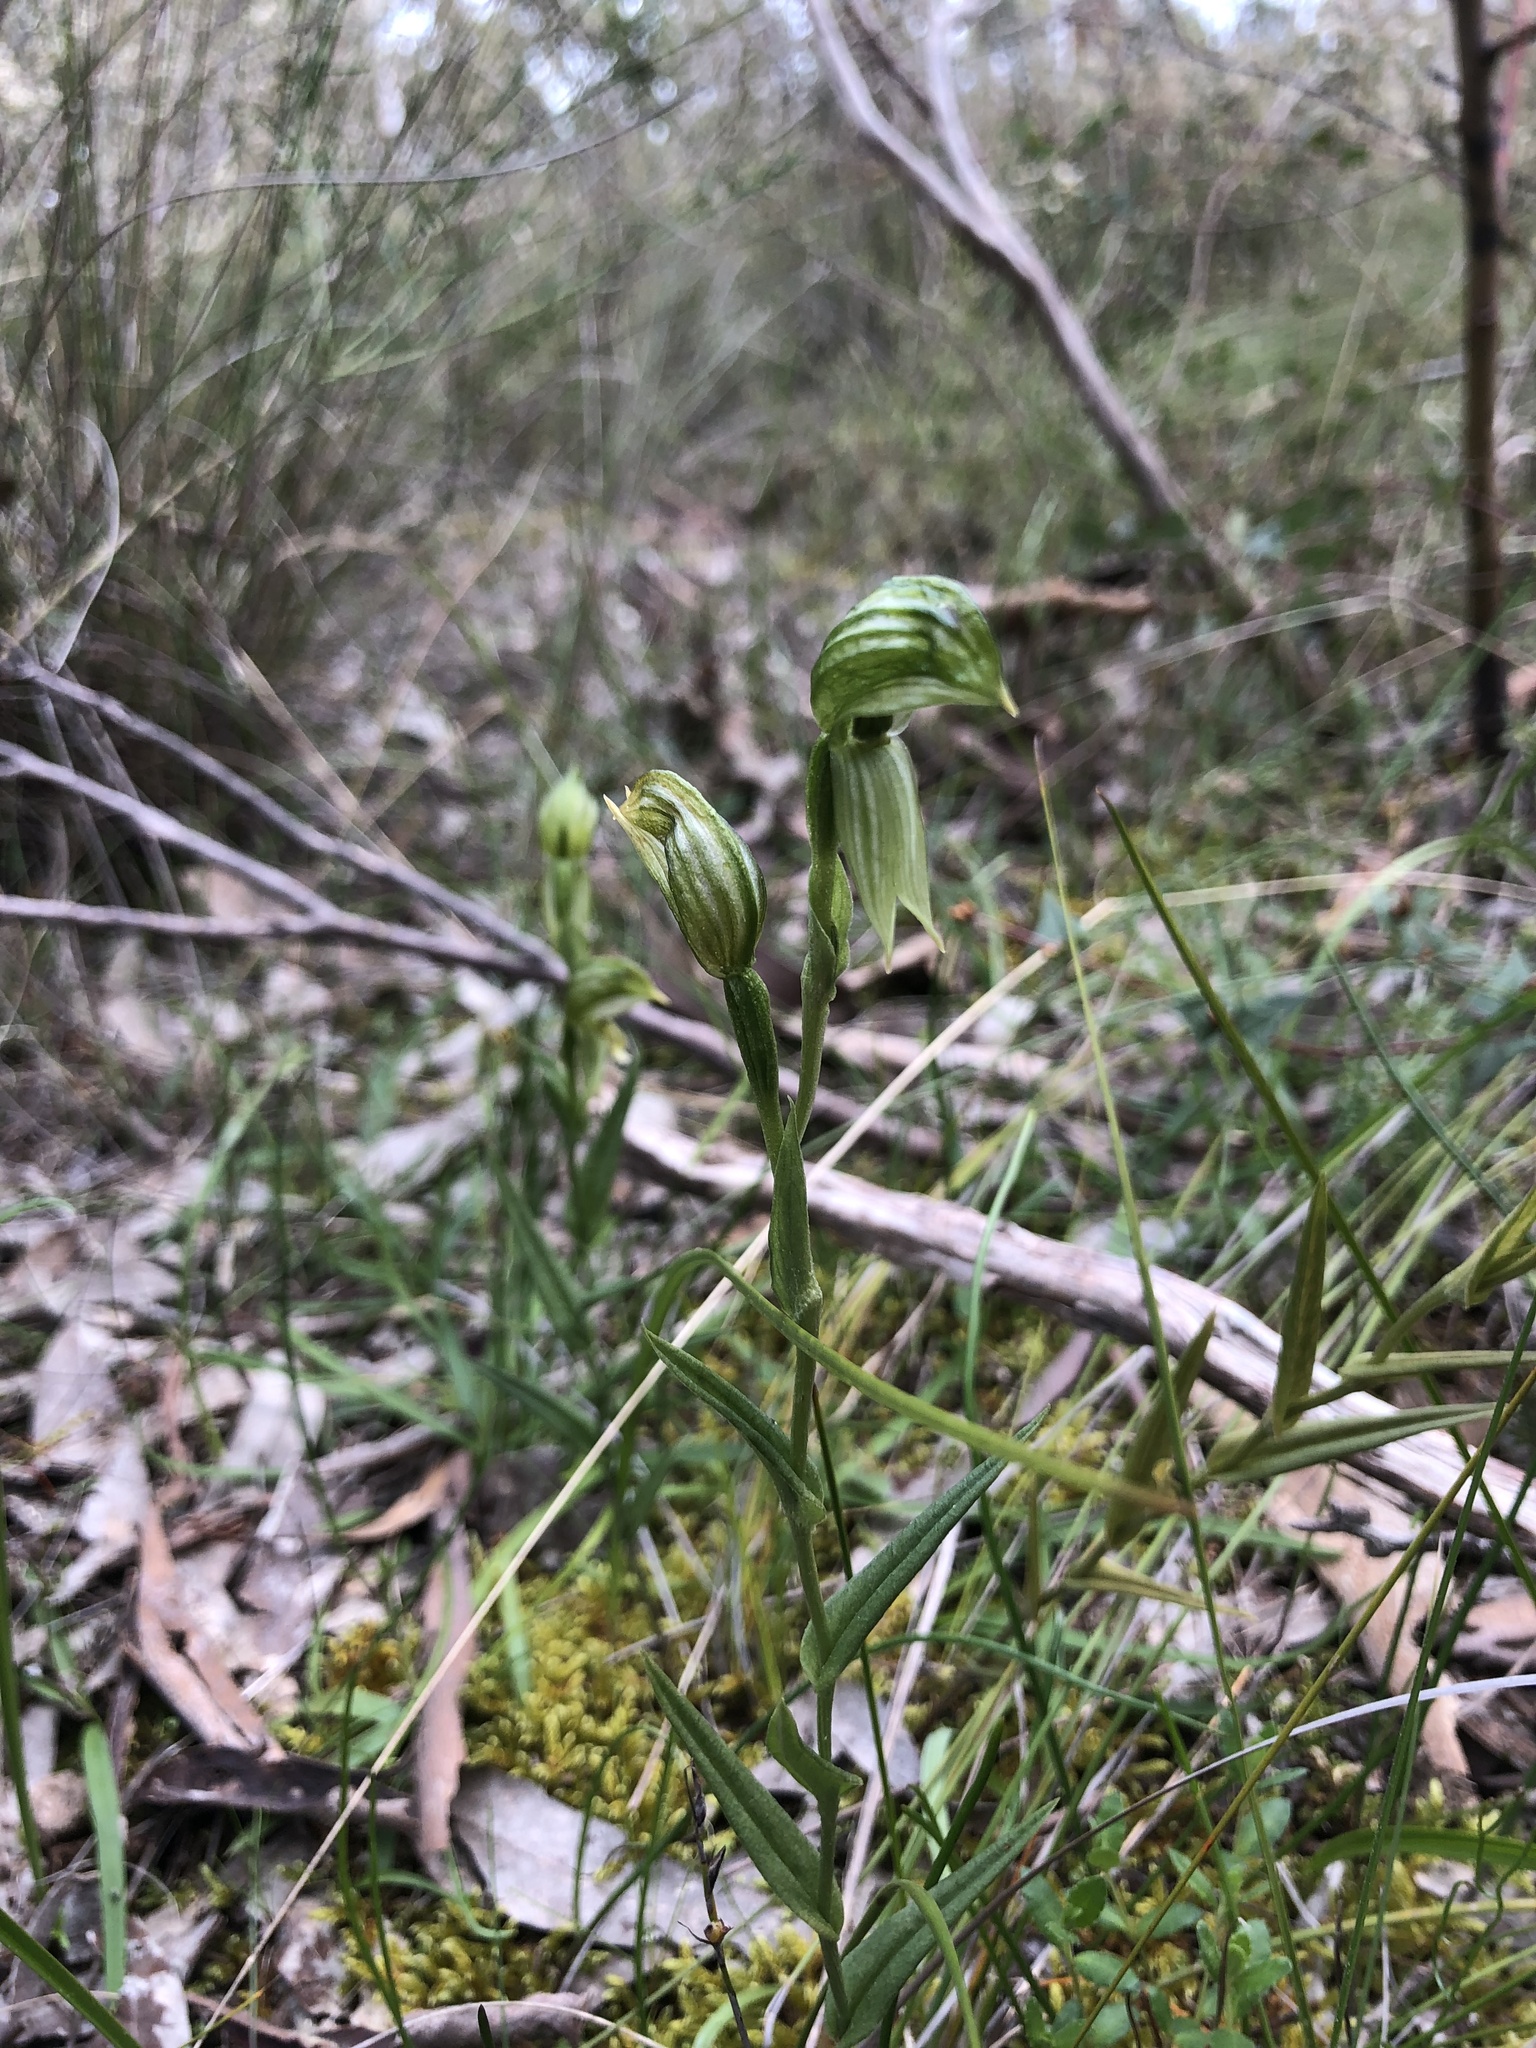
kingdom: Plantae
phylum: Tracheophyta
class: Liliopsida
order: Asparagales
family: Orchidaceae
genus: Pterostylis
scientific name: Pterostylis viriosa
